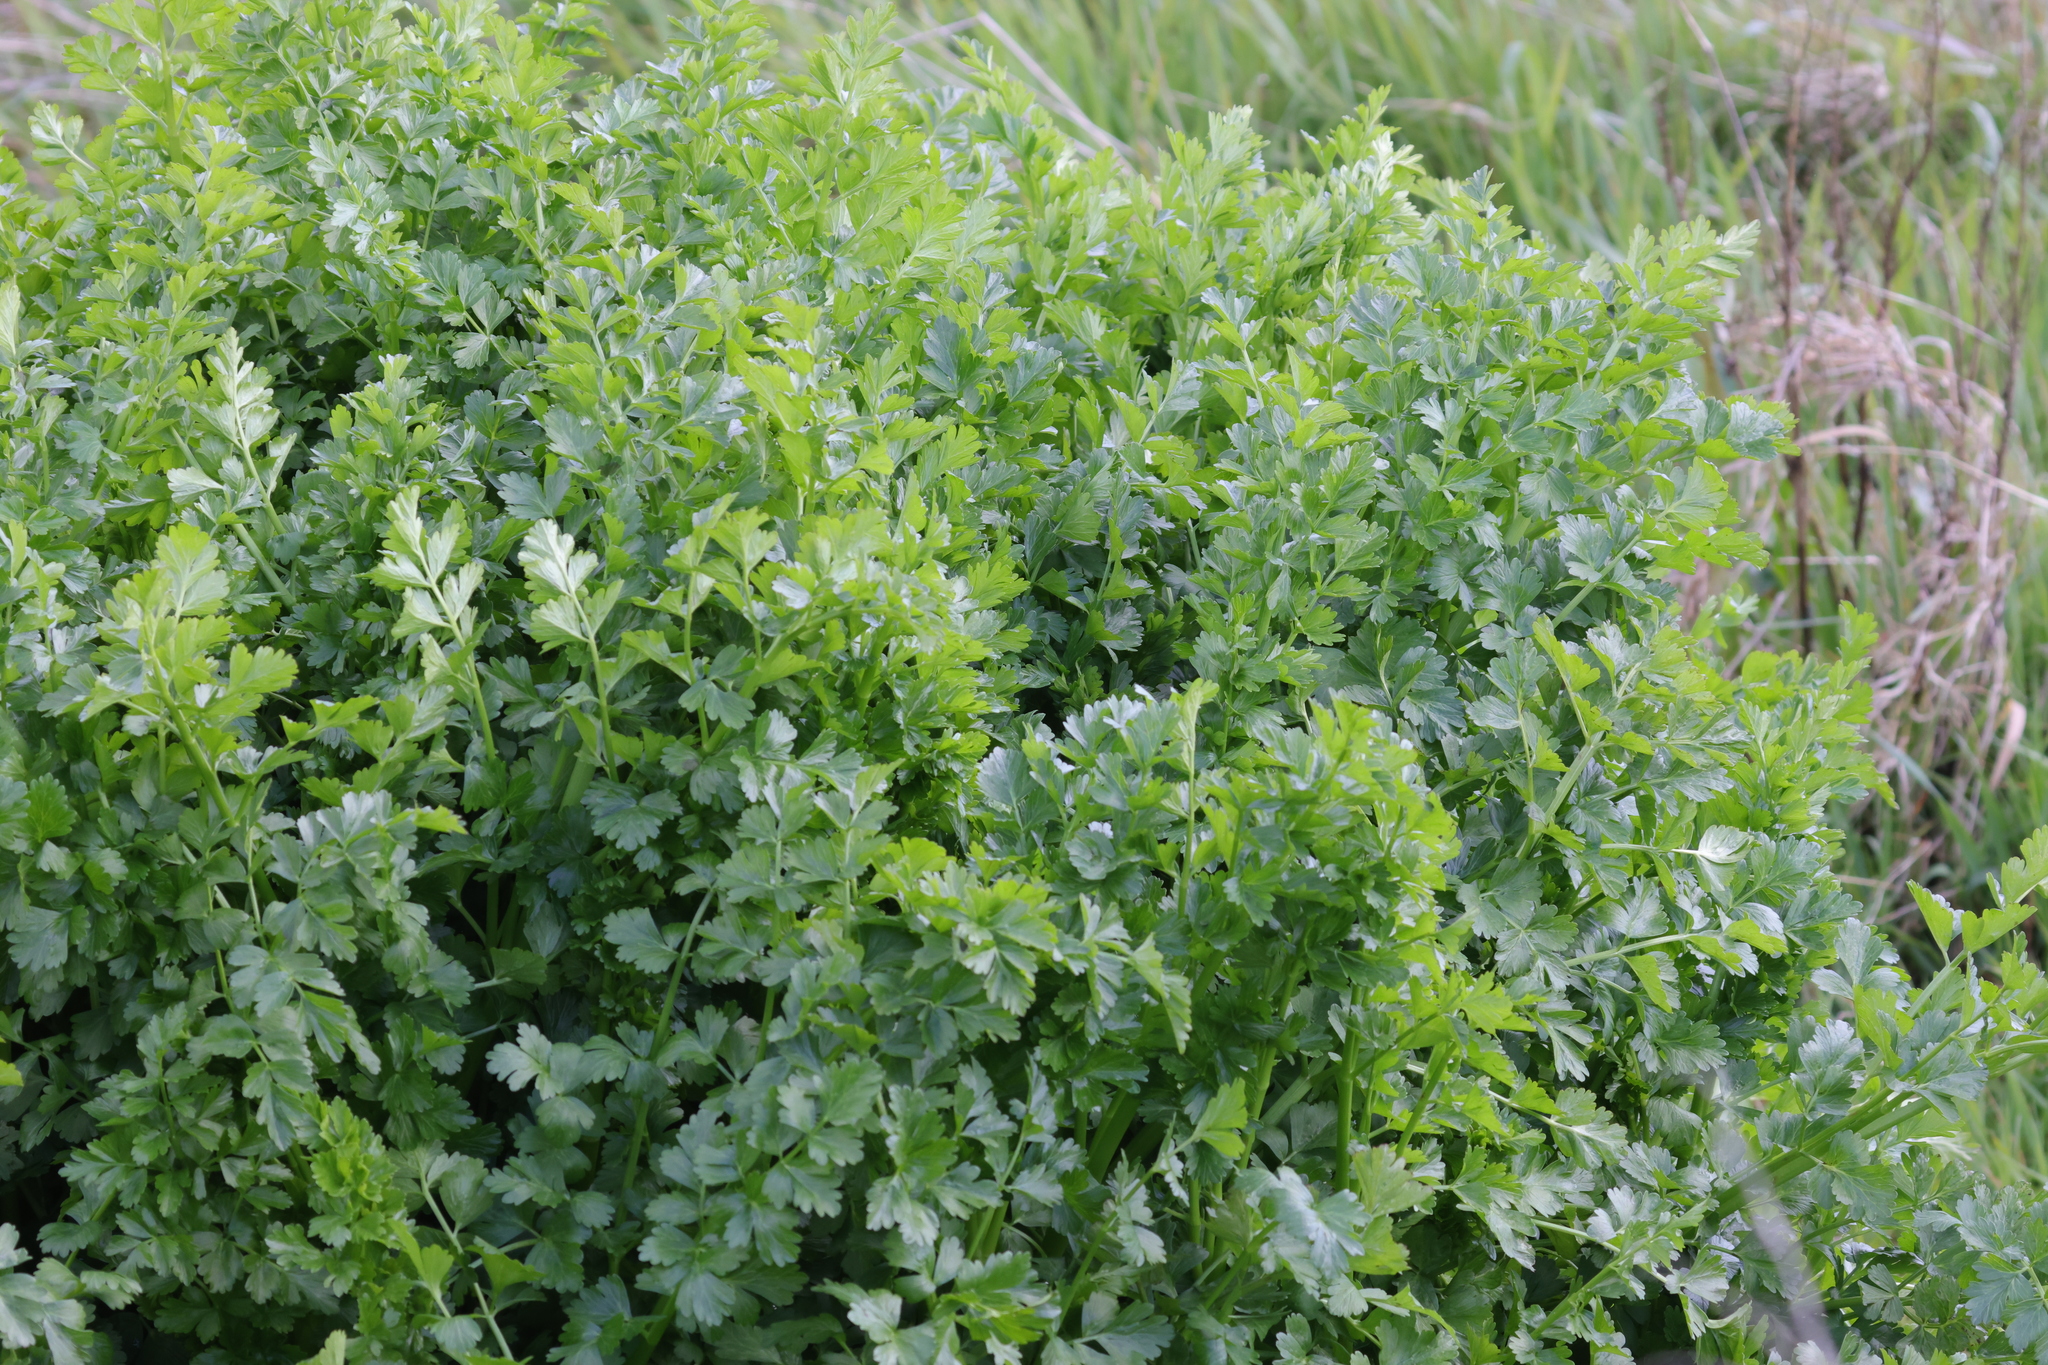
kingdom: Plantae
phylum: Tracheophyta
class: Magnoliopsida
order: Apiales
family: Apiaceae
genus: Oenanthe
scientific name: Oenanthe crocata
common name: Hemlock water-dropwort
